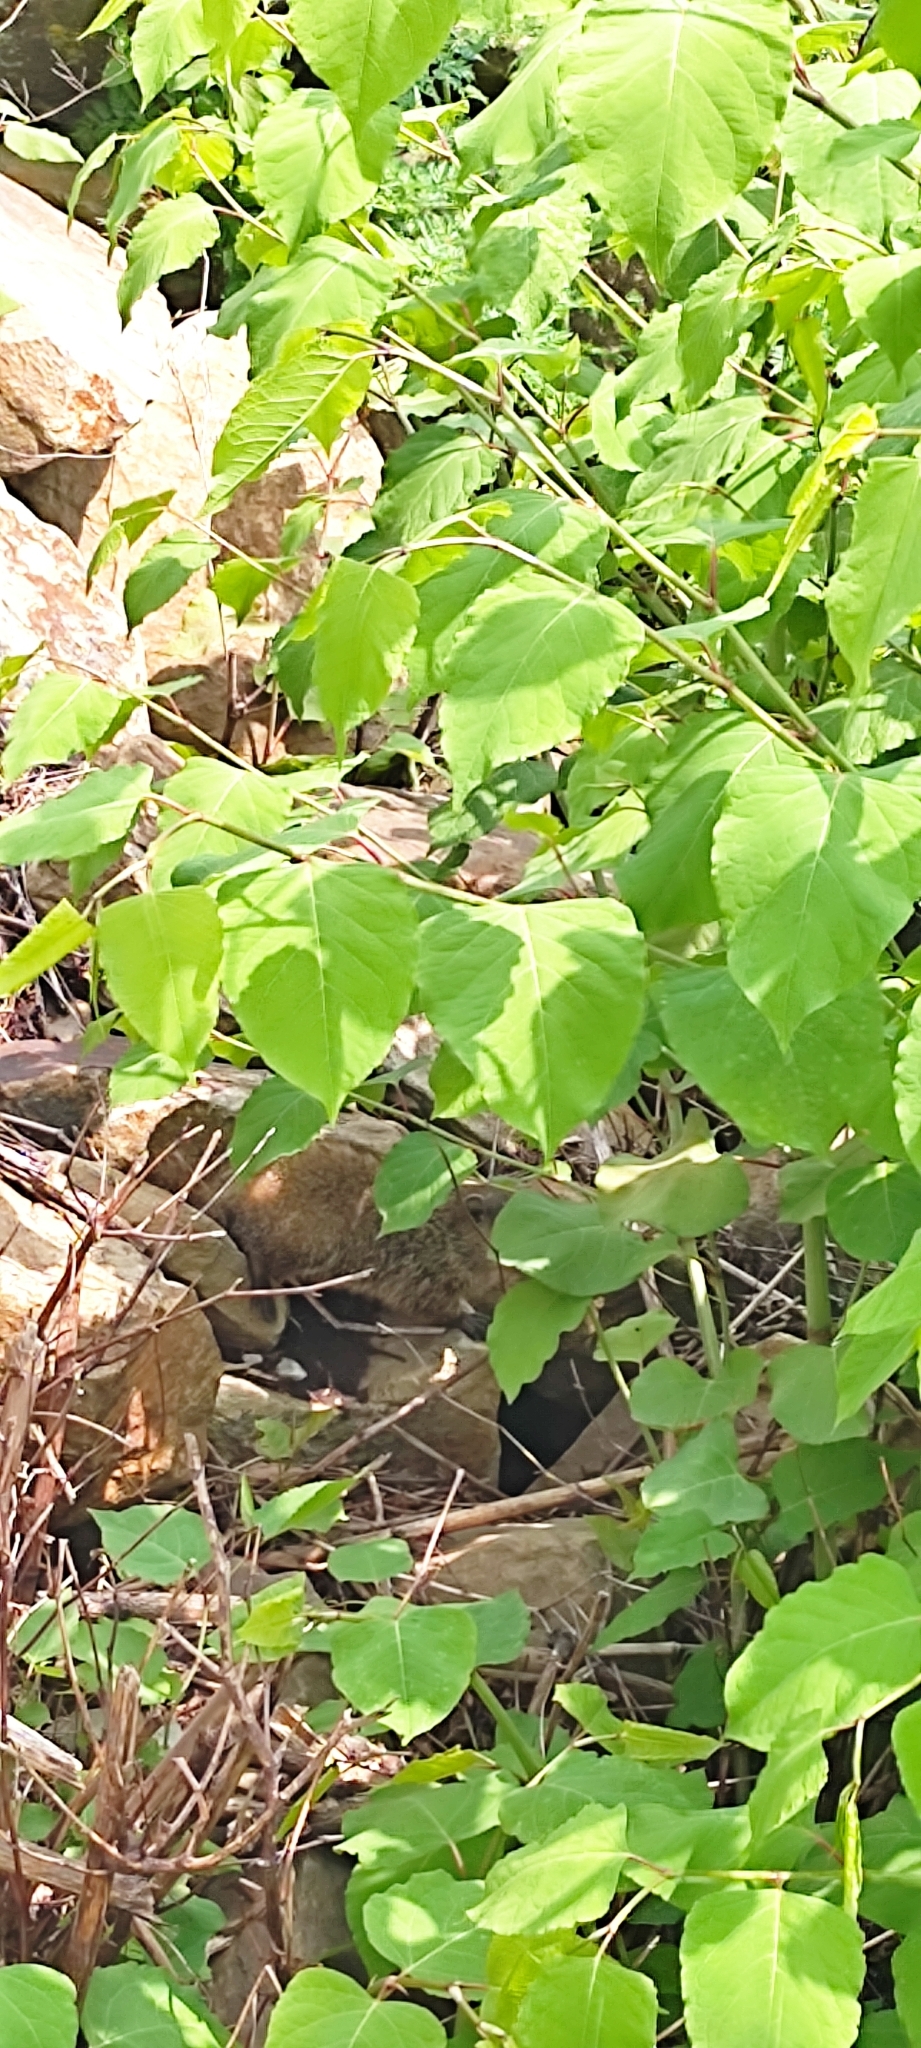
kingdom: Animalia
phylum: Chordata
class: Mammalia
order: Rodentia
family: Sciuridae
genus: Marmota
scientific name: Marmota monax
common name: Groundhog
